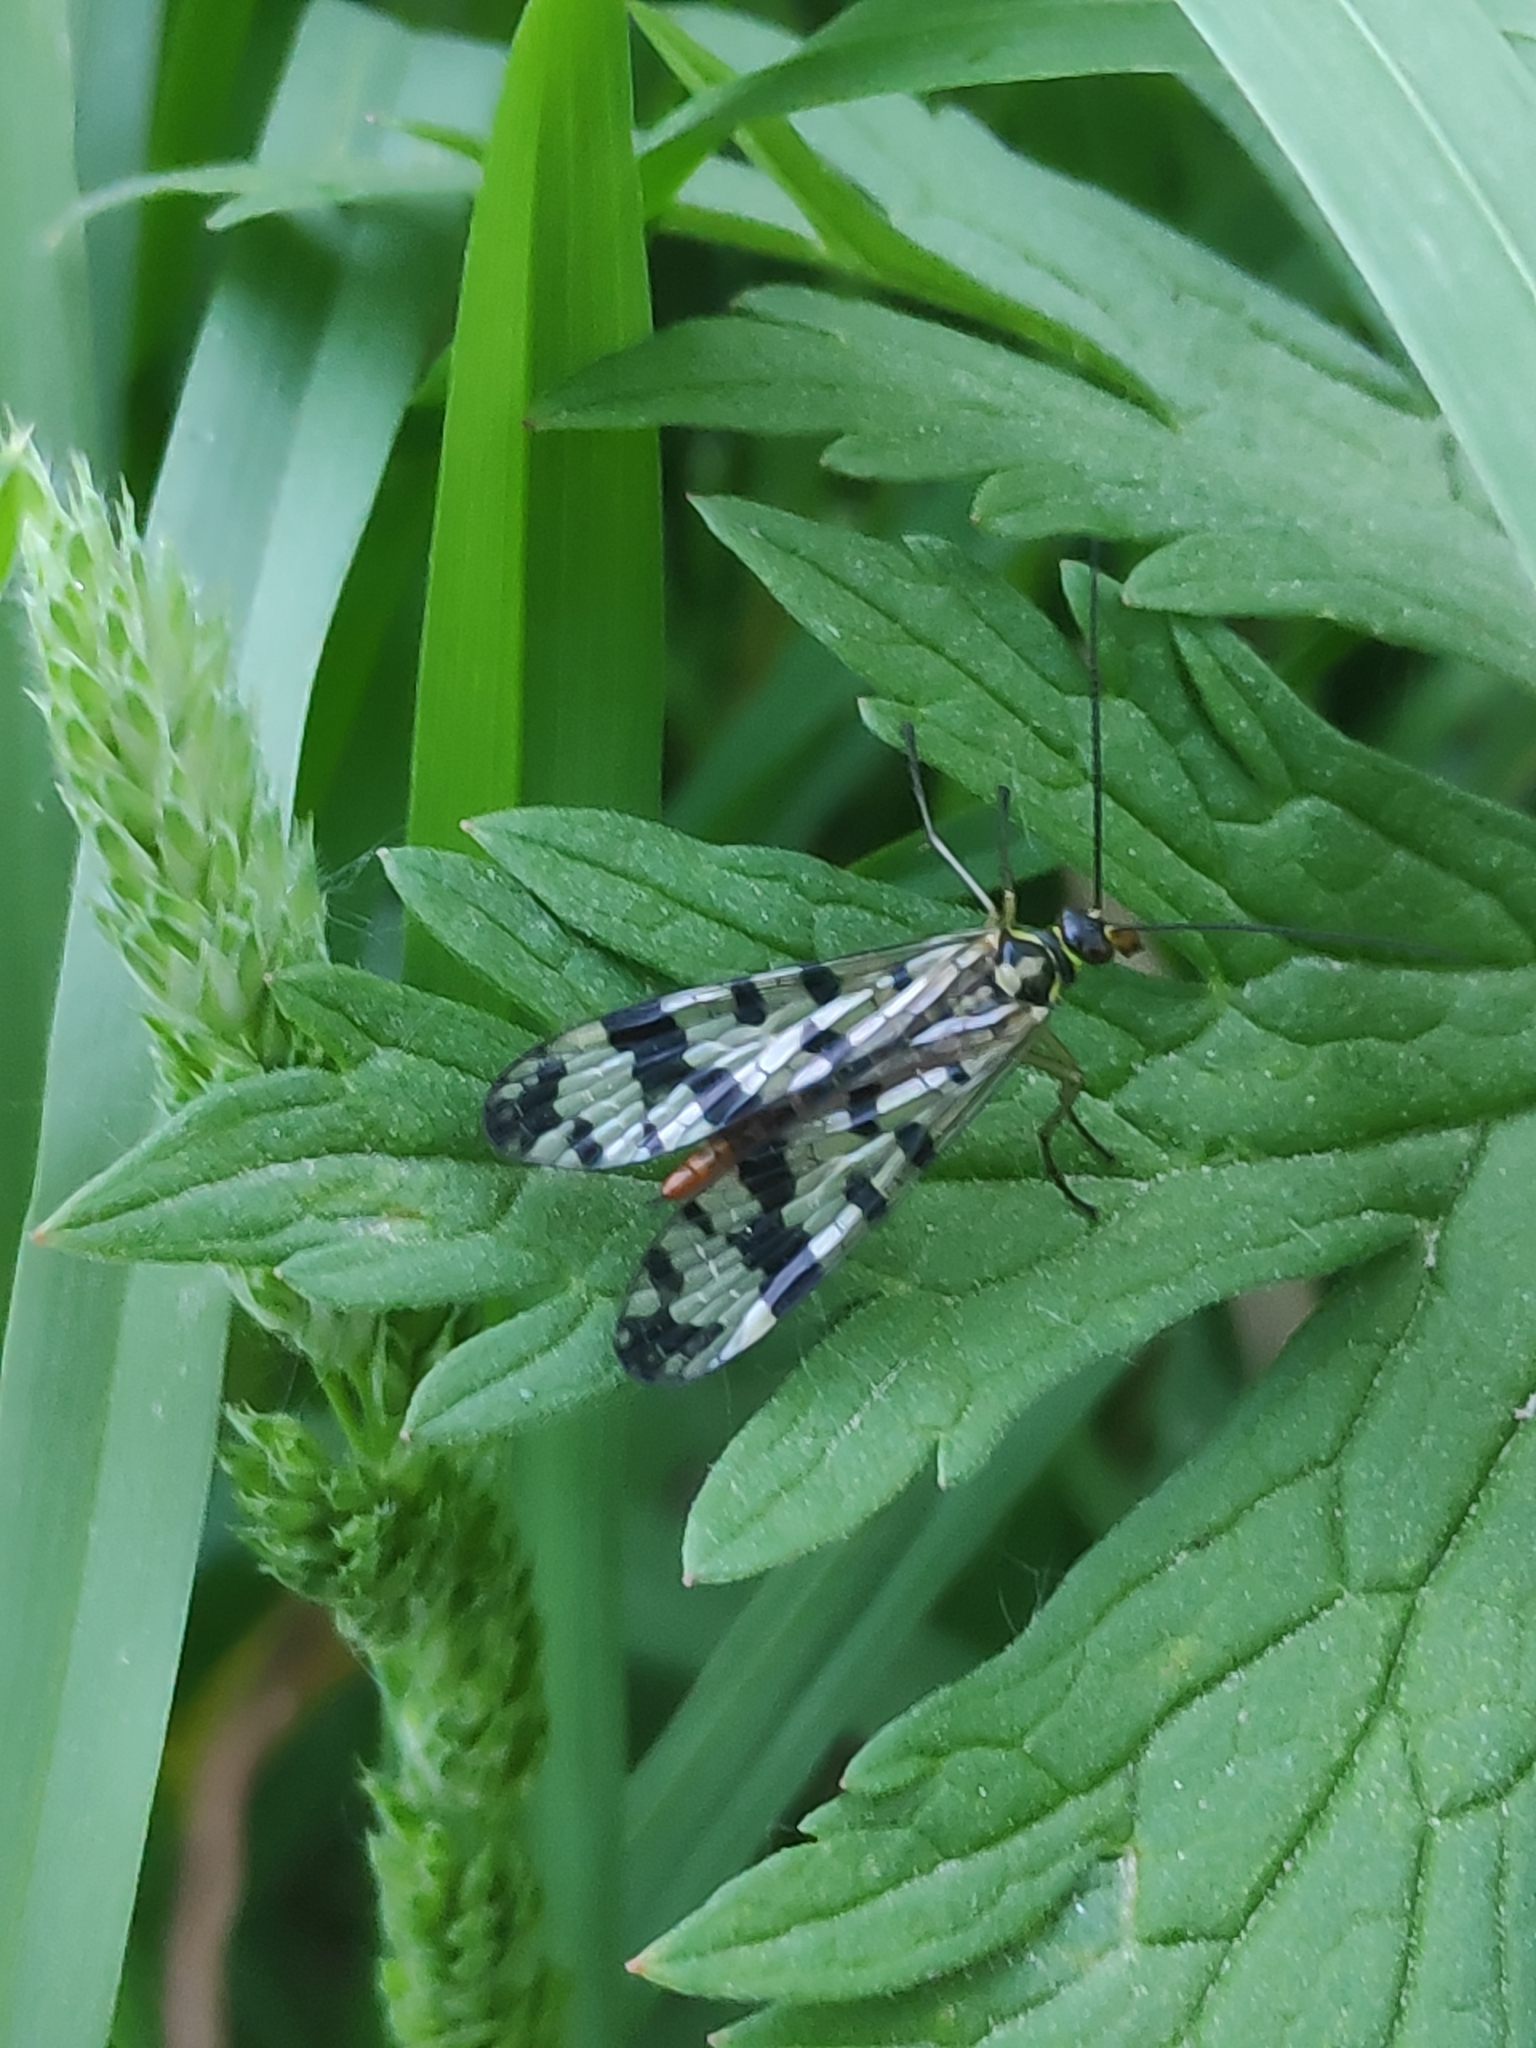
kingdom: Animalia
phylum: Arthropoda
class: Insecta
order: Mecoptera
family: Panorpidae
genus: Panorpa
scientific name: Panorpa communis
